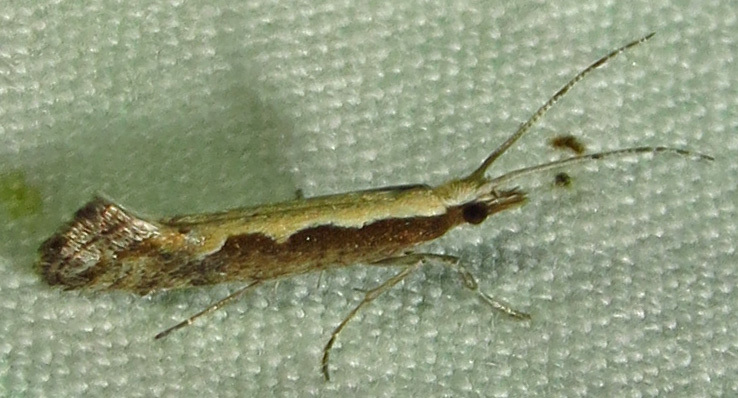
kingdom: Animalia
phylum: Arthropoda
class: Insecta
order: Lepidoptera
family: Plutellidae
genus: Plutella
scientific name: Plutella xylostella
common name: Diamond-back moth
